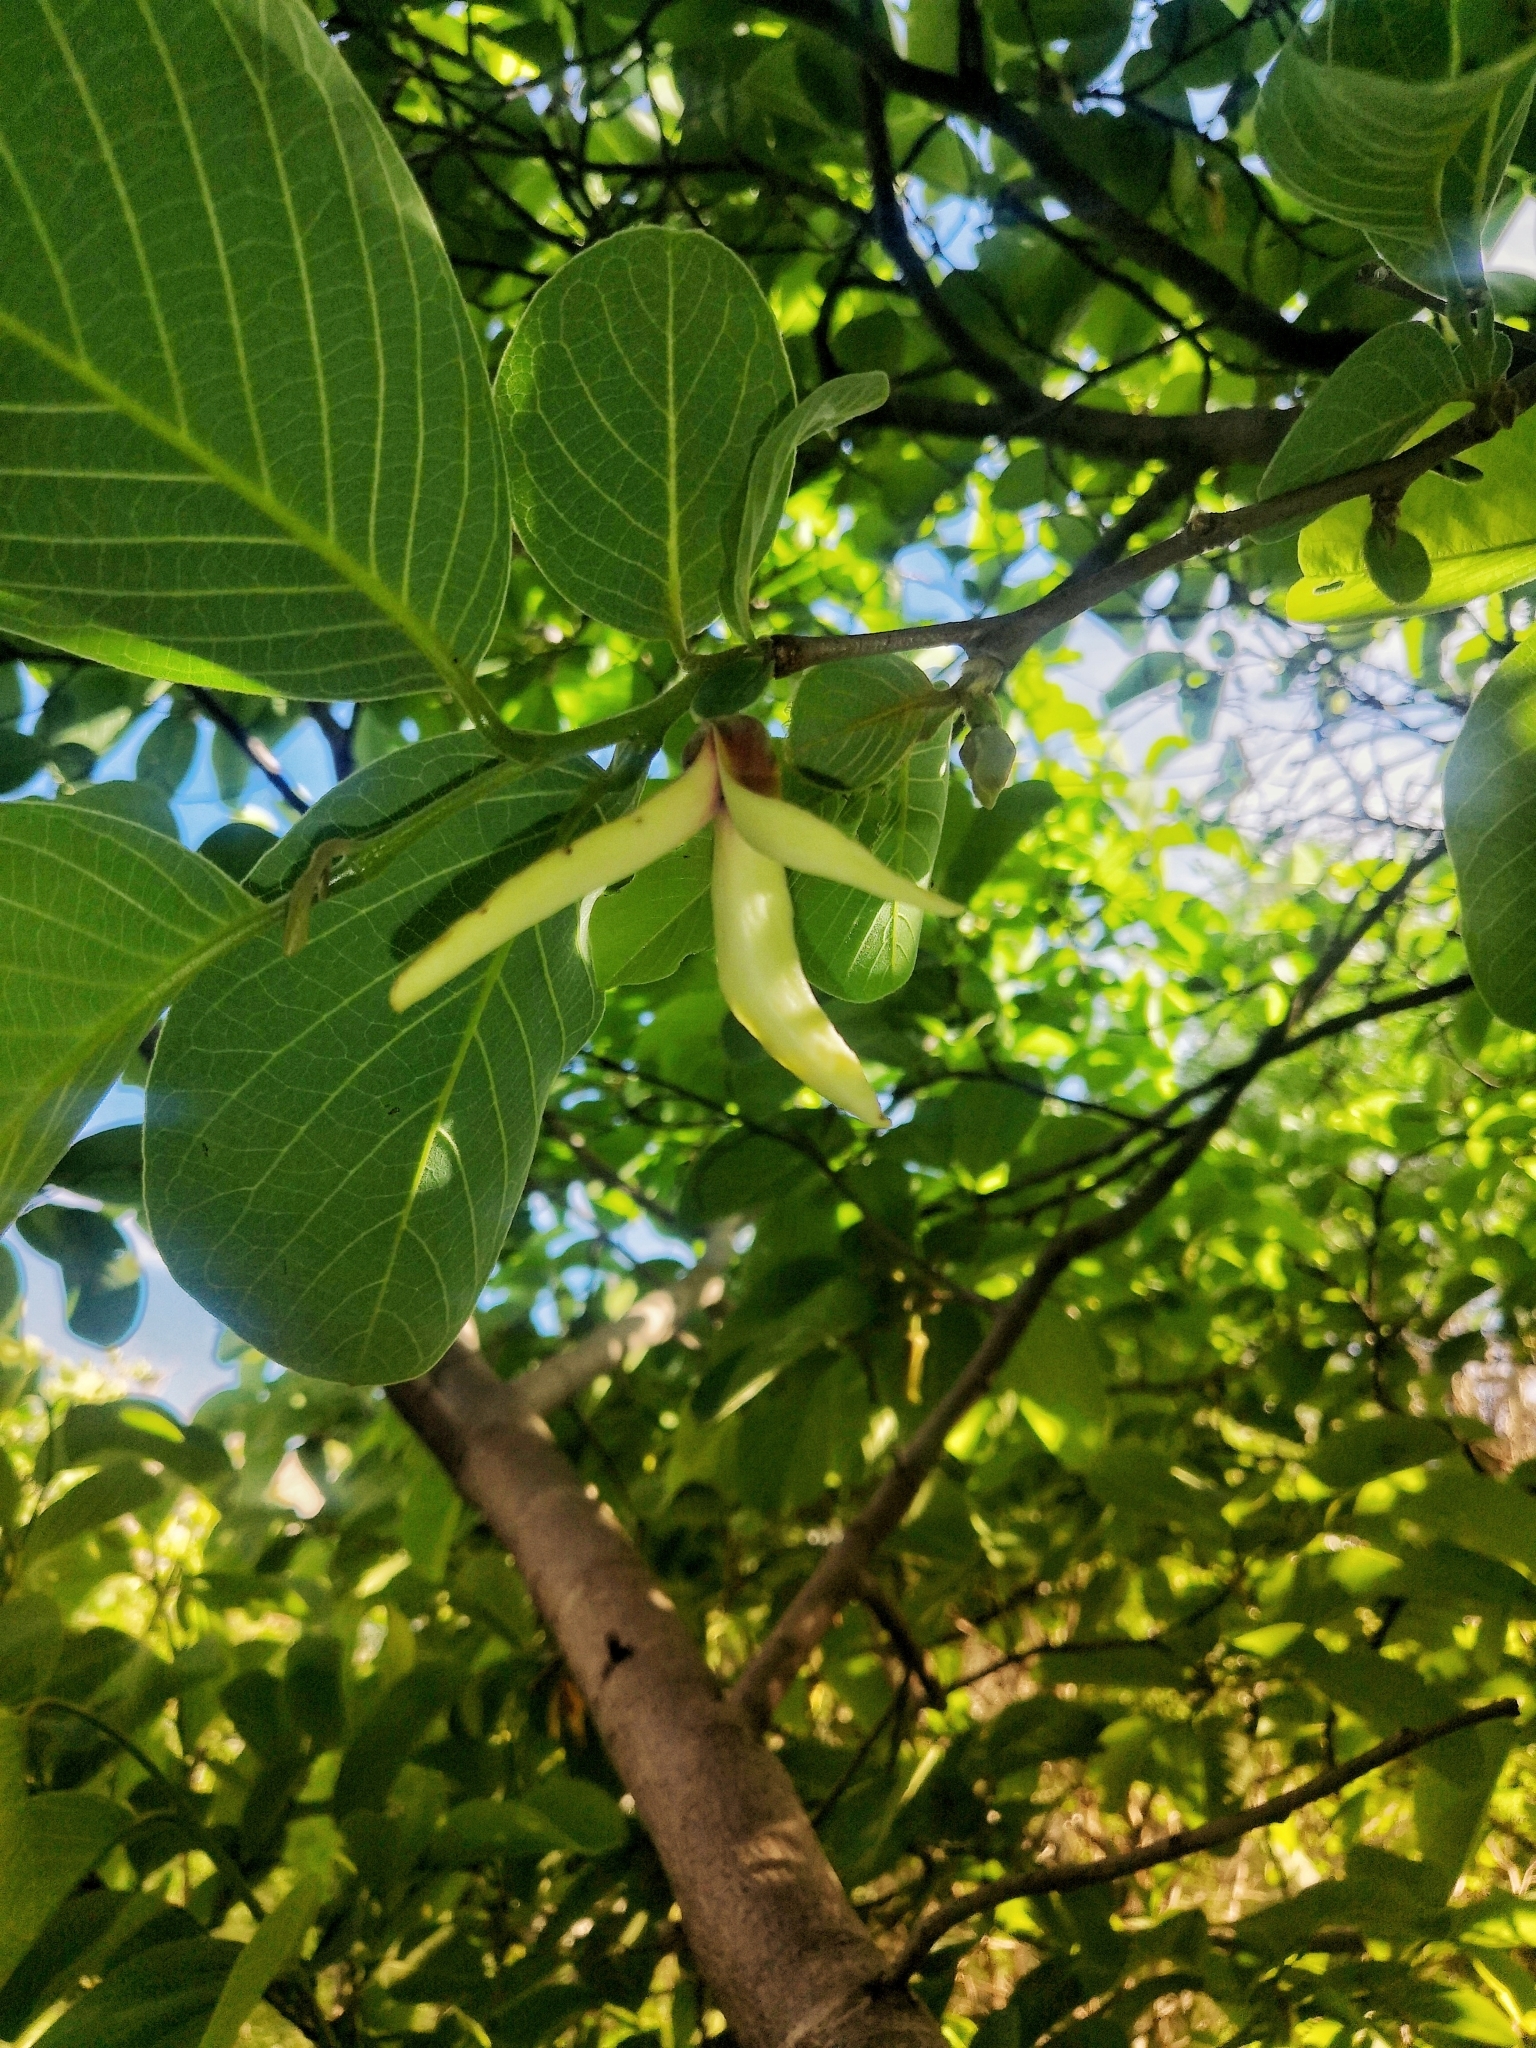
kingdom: Plantae
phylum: Tracheophyta
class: Magnoliopsida
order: Magnoliales
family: Annonaceae
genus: Annona
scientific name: Annona longiflora
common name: Wild cherimoya of jalisco
